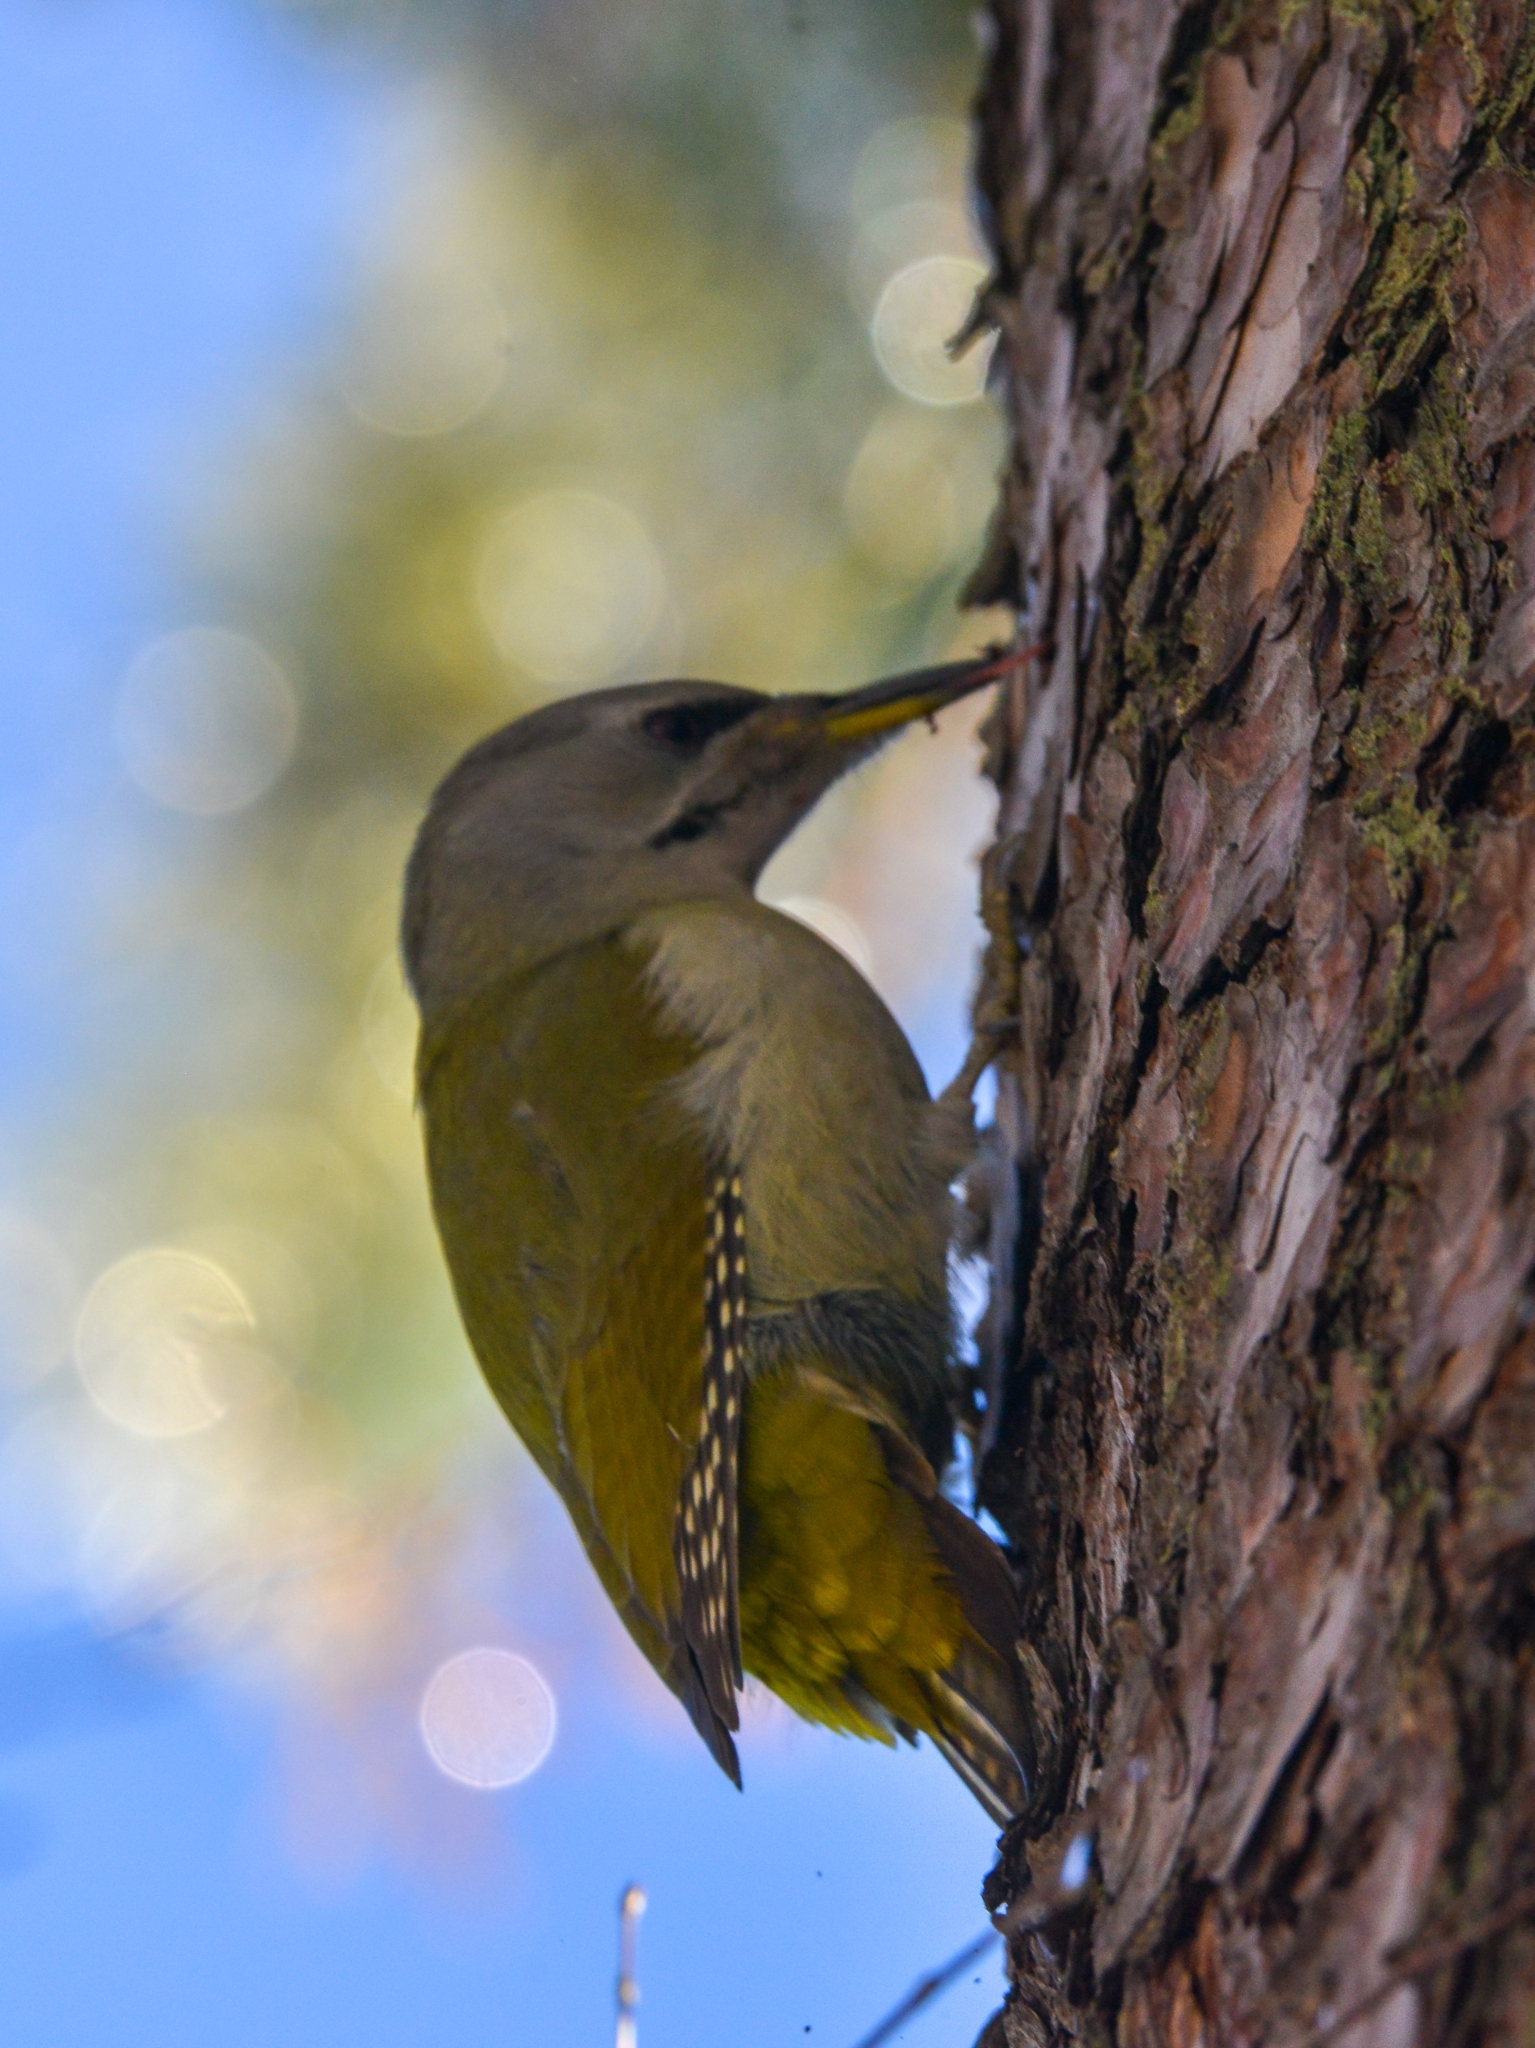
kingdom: Animalia
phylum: Chordata
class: Aves
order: Piciformes
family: Picidae
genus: Picus
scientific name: Picus canus
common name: Grey-headed woodpecker
